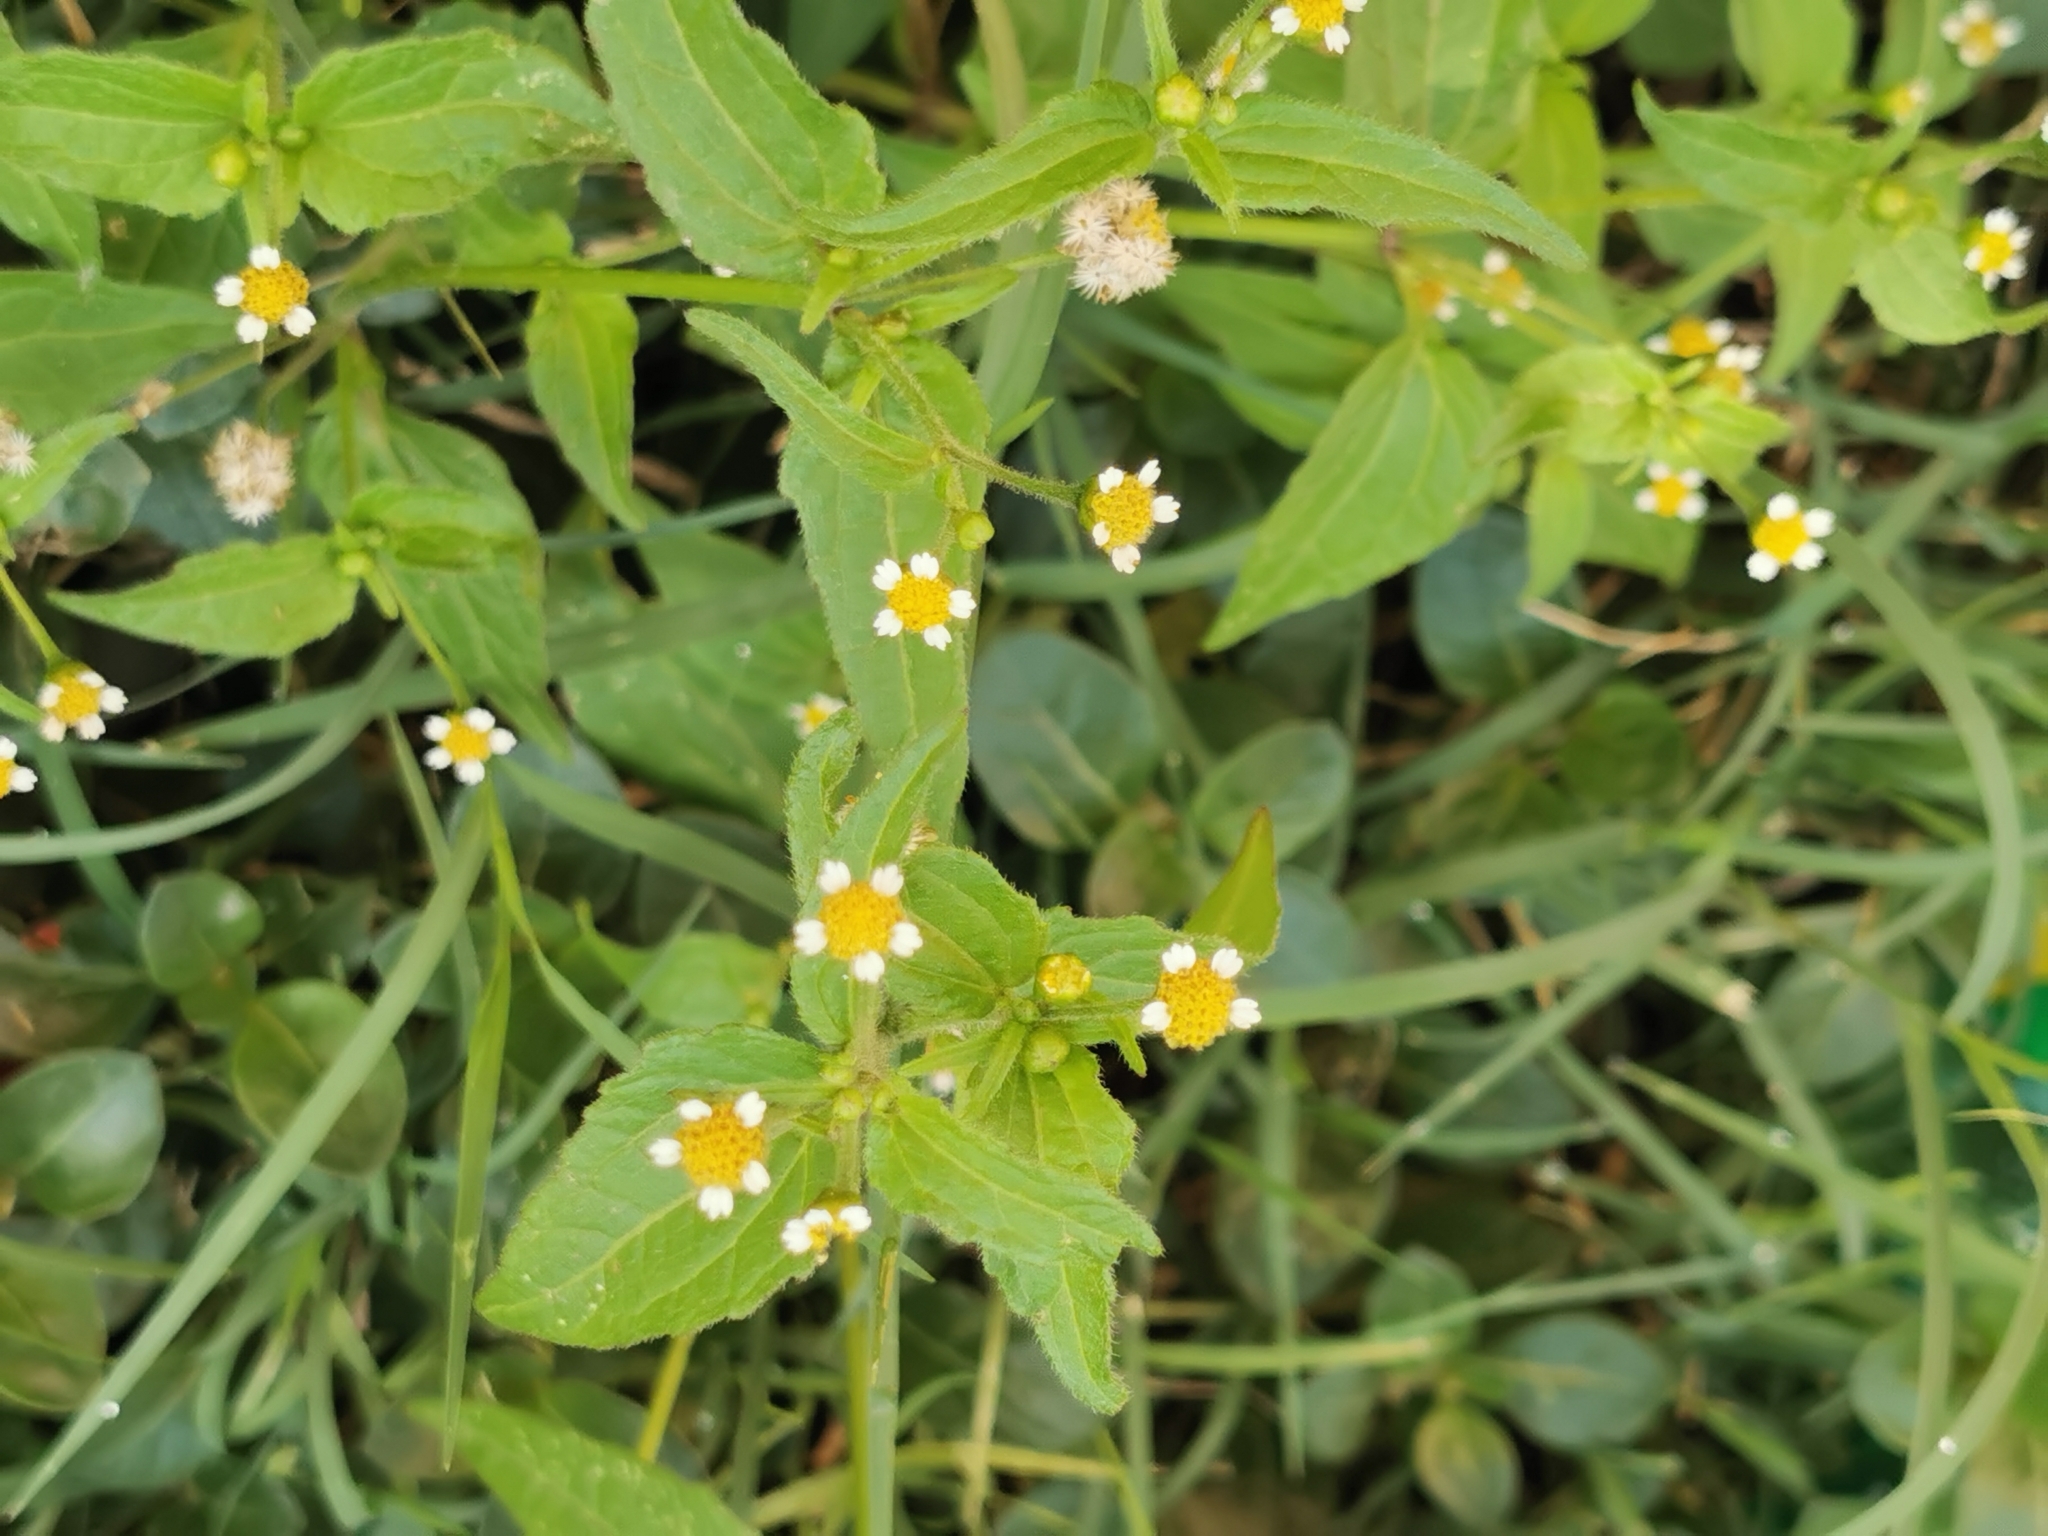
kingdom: Plantae
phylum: Tracheophyta
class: Magnoliopsida
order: Asterales
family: Asteraceae
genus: Galinsoga
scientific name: Galinsoga parviflora
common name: Gallant soldier
